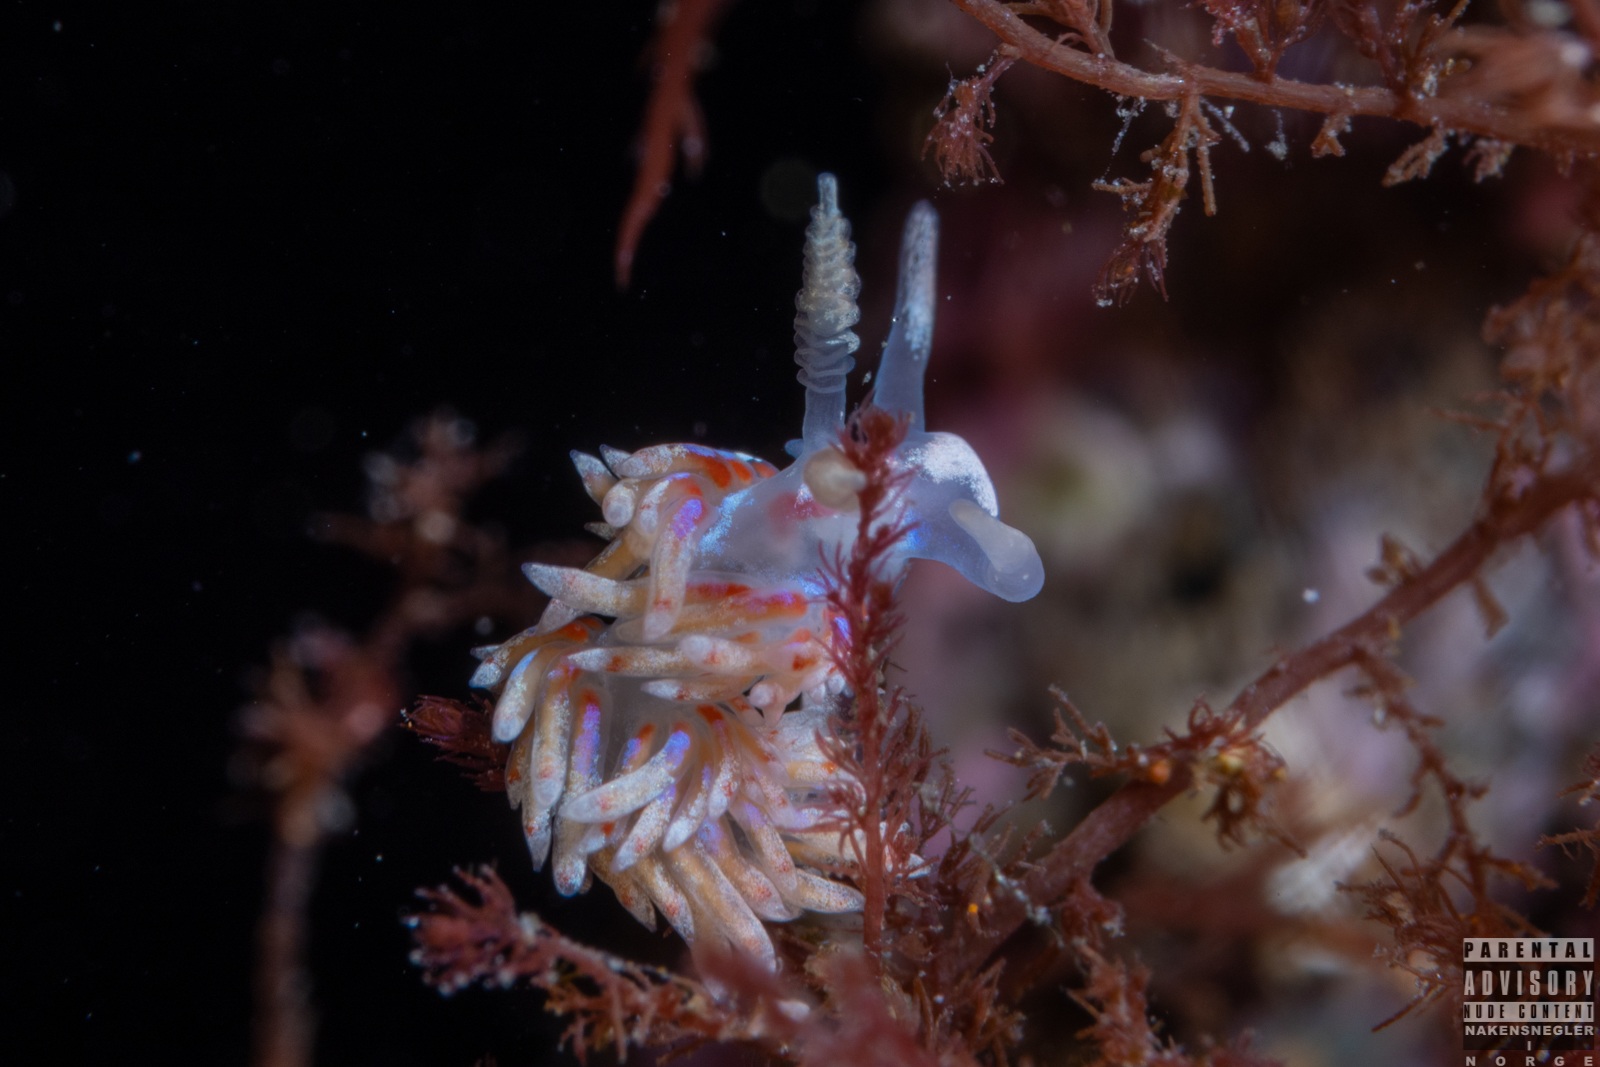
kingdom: Animalia
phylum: Mollusca
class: Gastropoda
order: Nudibranchia
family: Facelinidae
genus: Facelina
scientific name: Facelina auriculata
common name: Slender facelina
